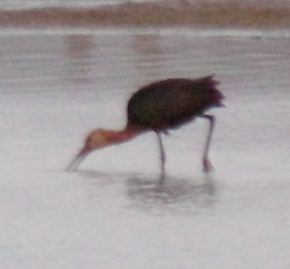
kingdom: Animalia
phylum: Chordata
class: Aves
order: Pelecaniformes
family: Threskiornithidae
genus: Plegadis
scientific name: Plegadis chihi
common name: White-faced ibis
